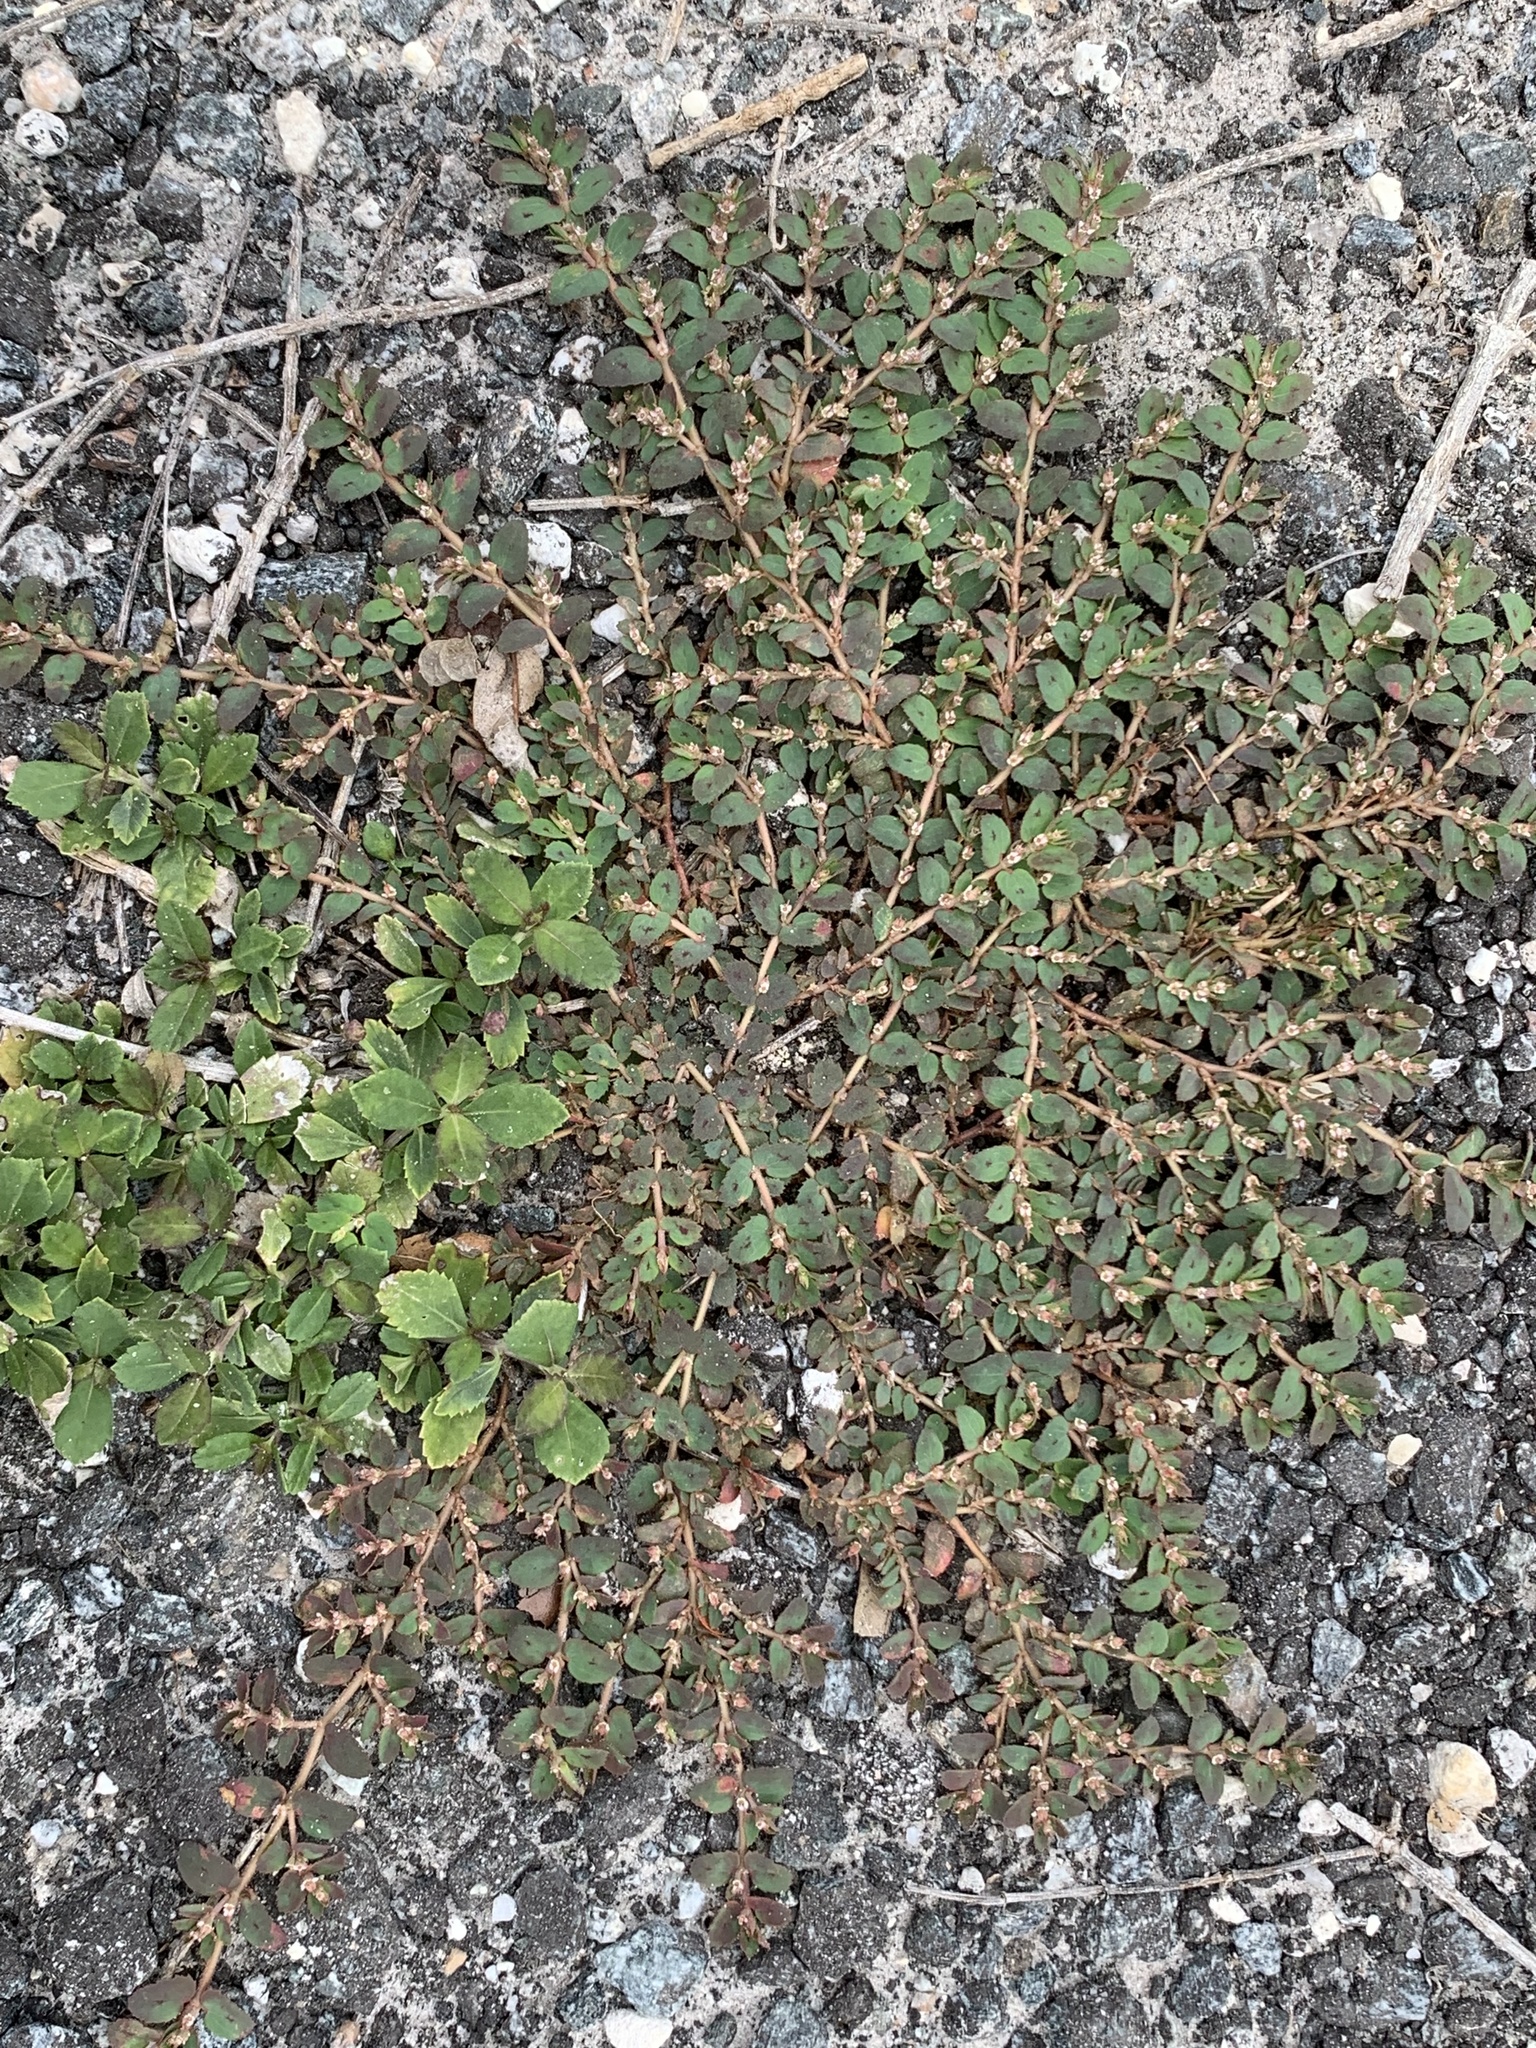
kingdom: Plantae
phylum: Tracheophyta
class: Magnoliopsida
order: Malpighiales
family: Euphorbiaceae
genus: Euphorbia
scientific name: Euphorbia thymifolia
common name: Gulf sandmat
